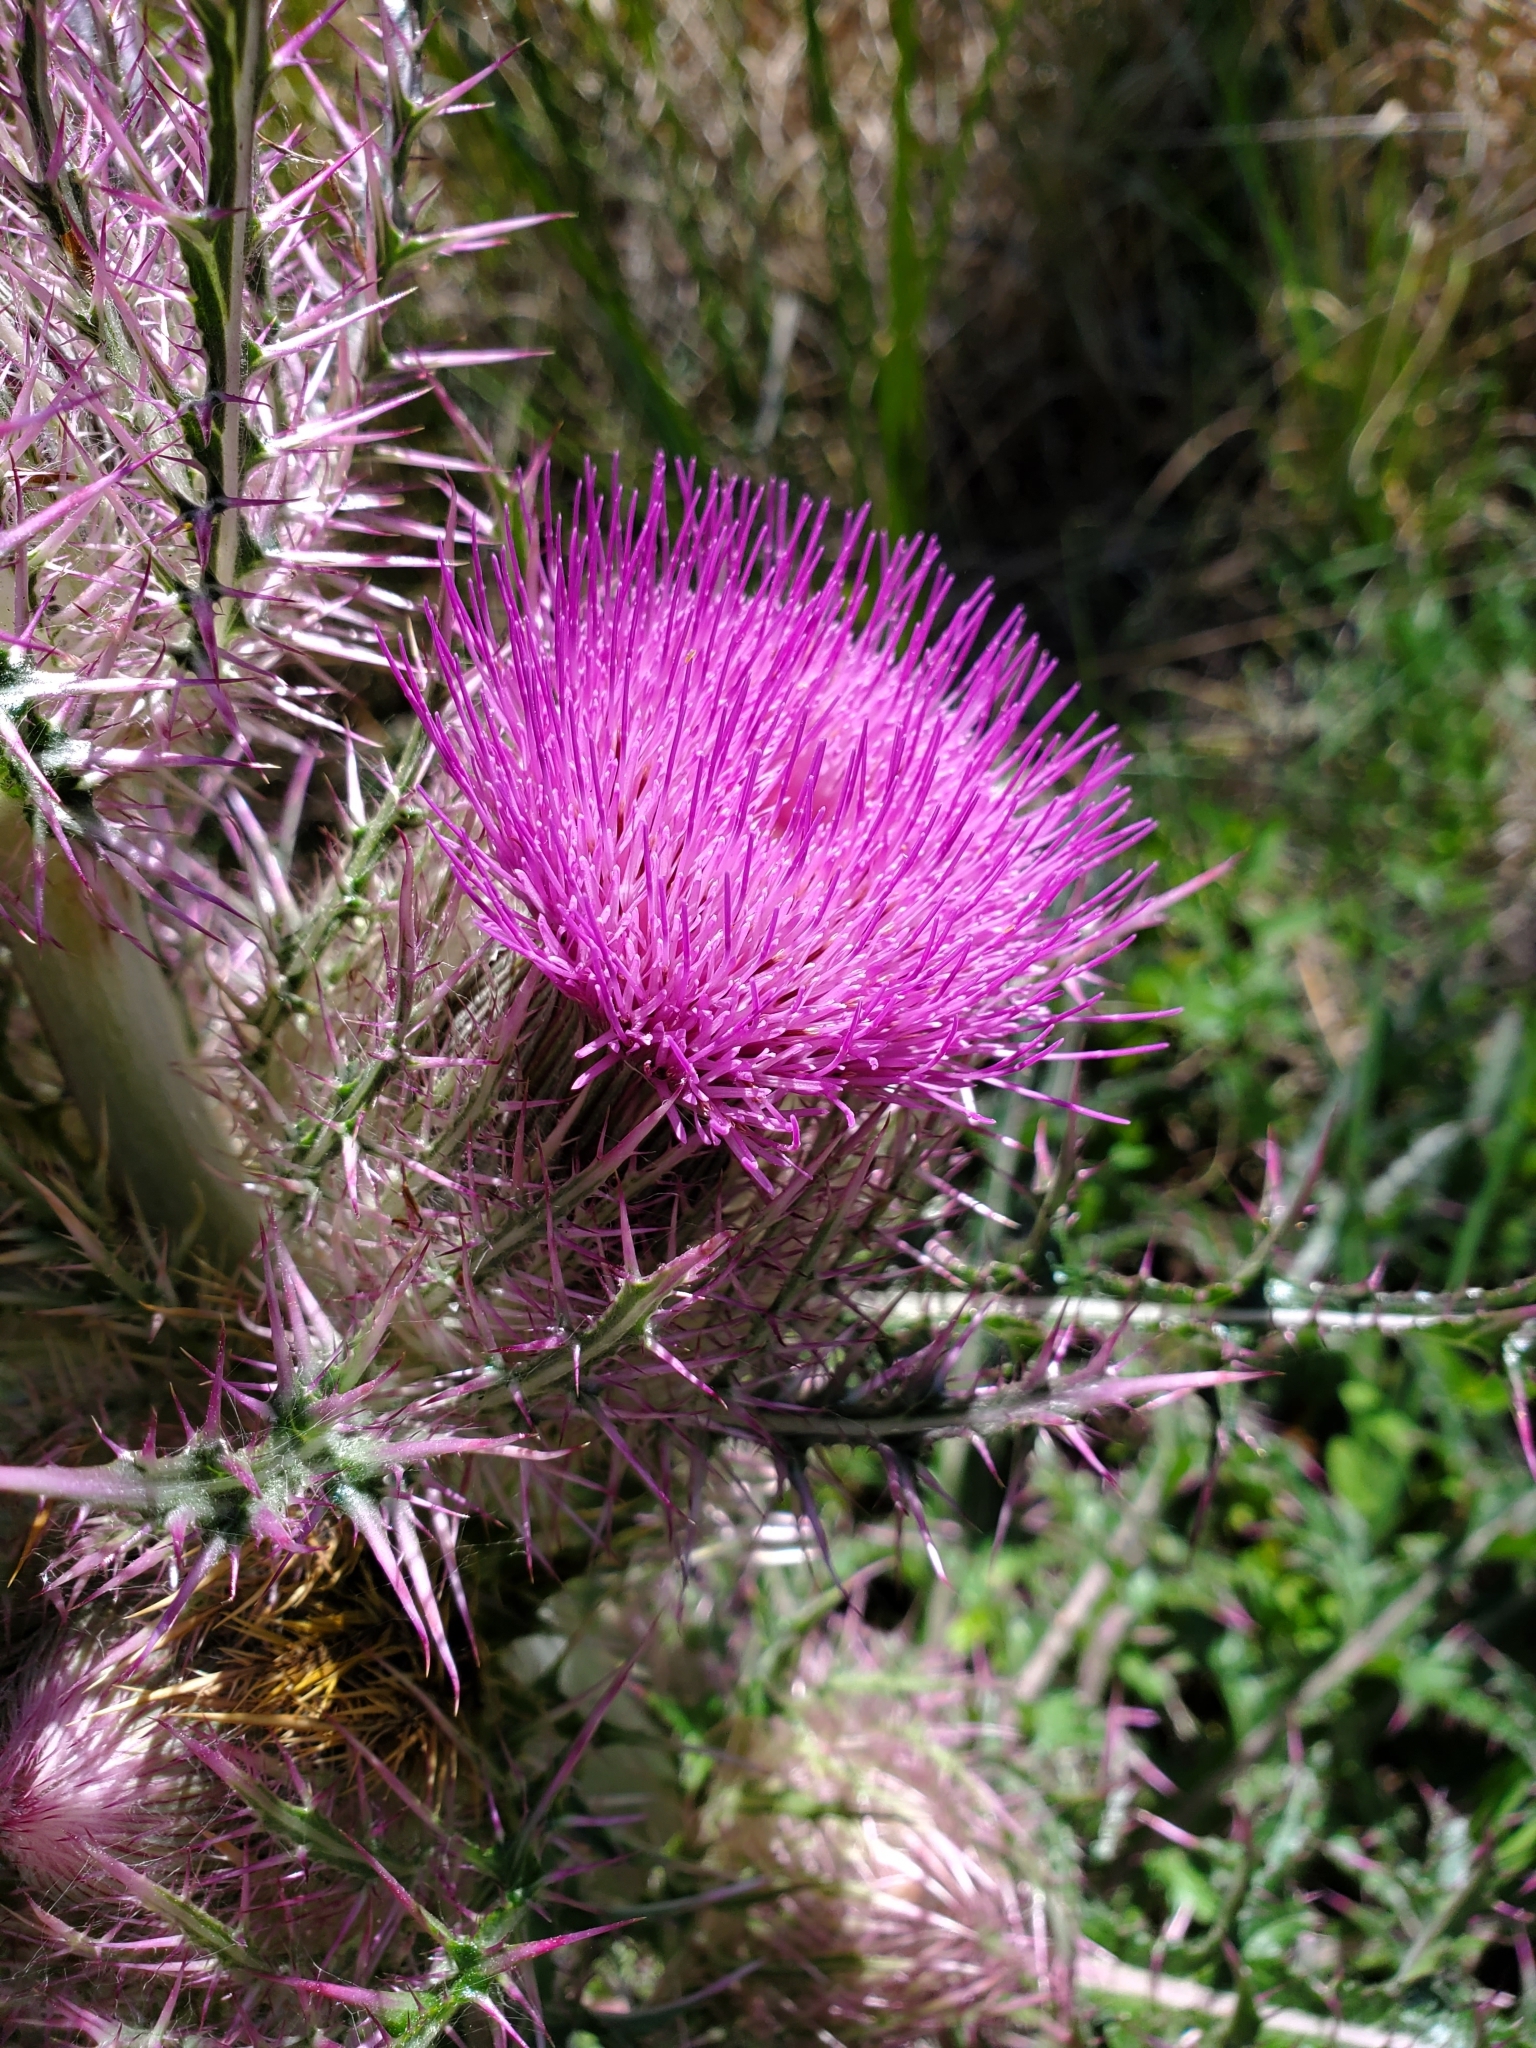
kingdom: Plantae
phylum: Tracheophyta
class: Magnoliopsida
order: Asterales
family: Asteraceae
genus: Cirsium
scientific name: Cirsium horridulum
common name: Bristly thistle
